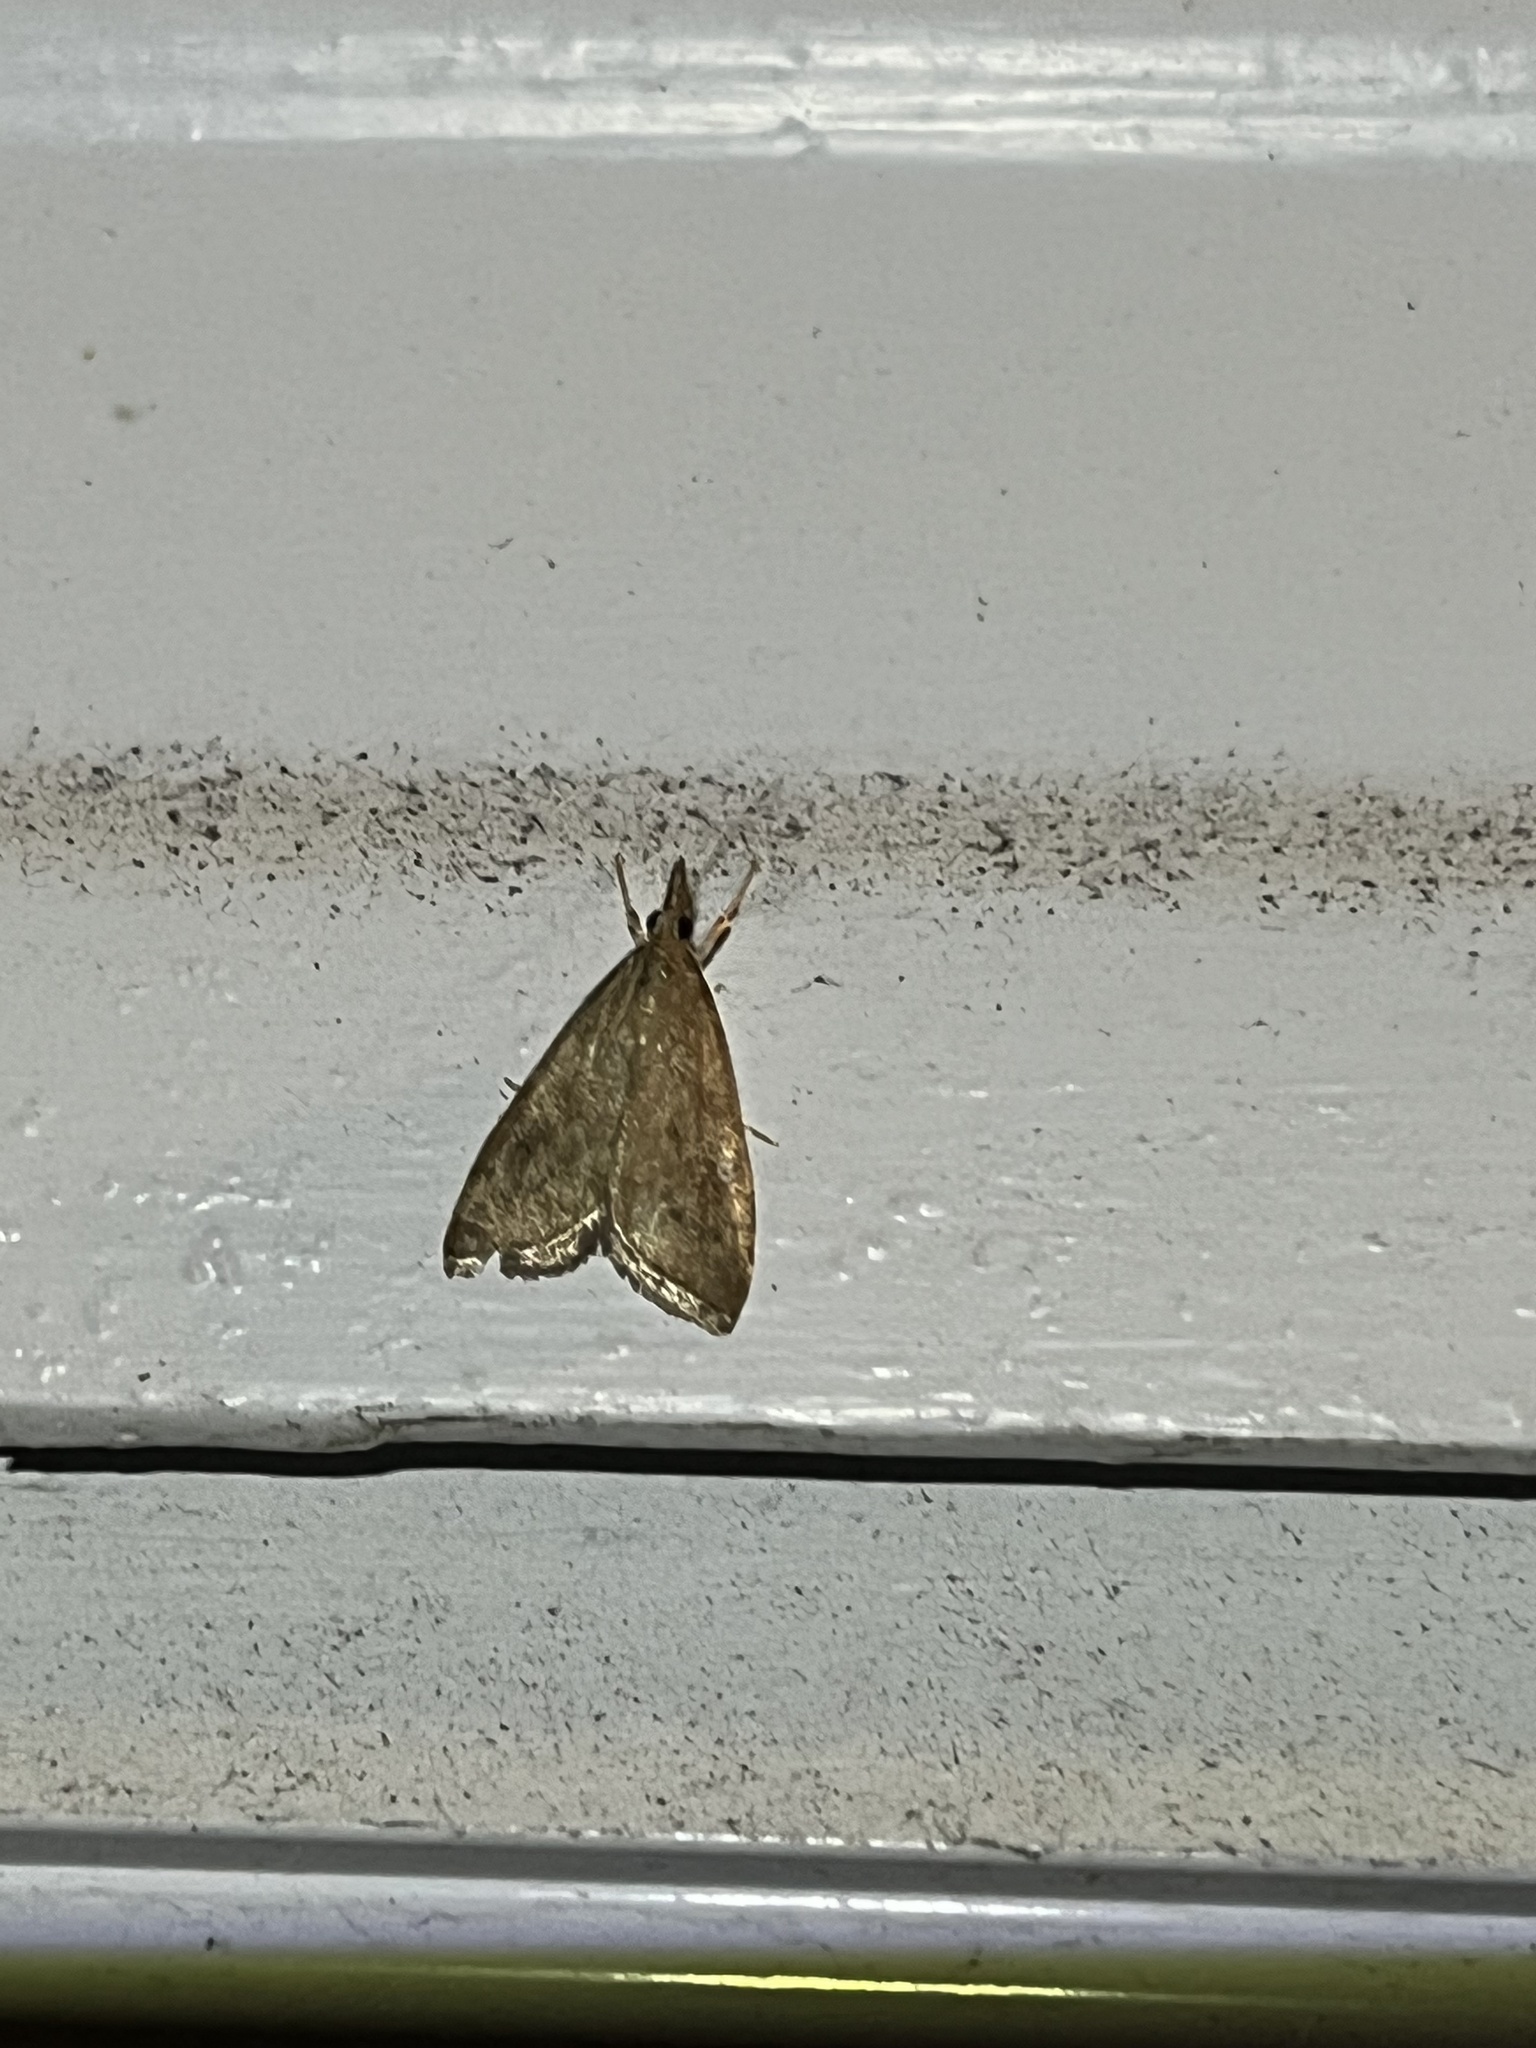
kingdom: Animalia
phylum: Arthropoda
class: Insecta
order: Lepidoptera
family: Crambidae
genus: Udea
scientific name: Udea rubigalis
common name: Celery leaftier moth
